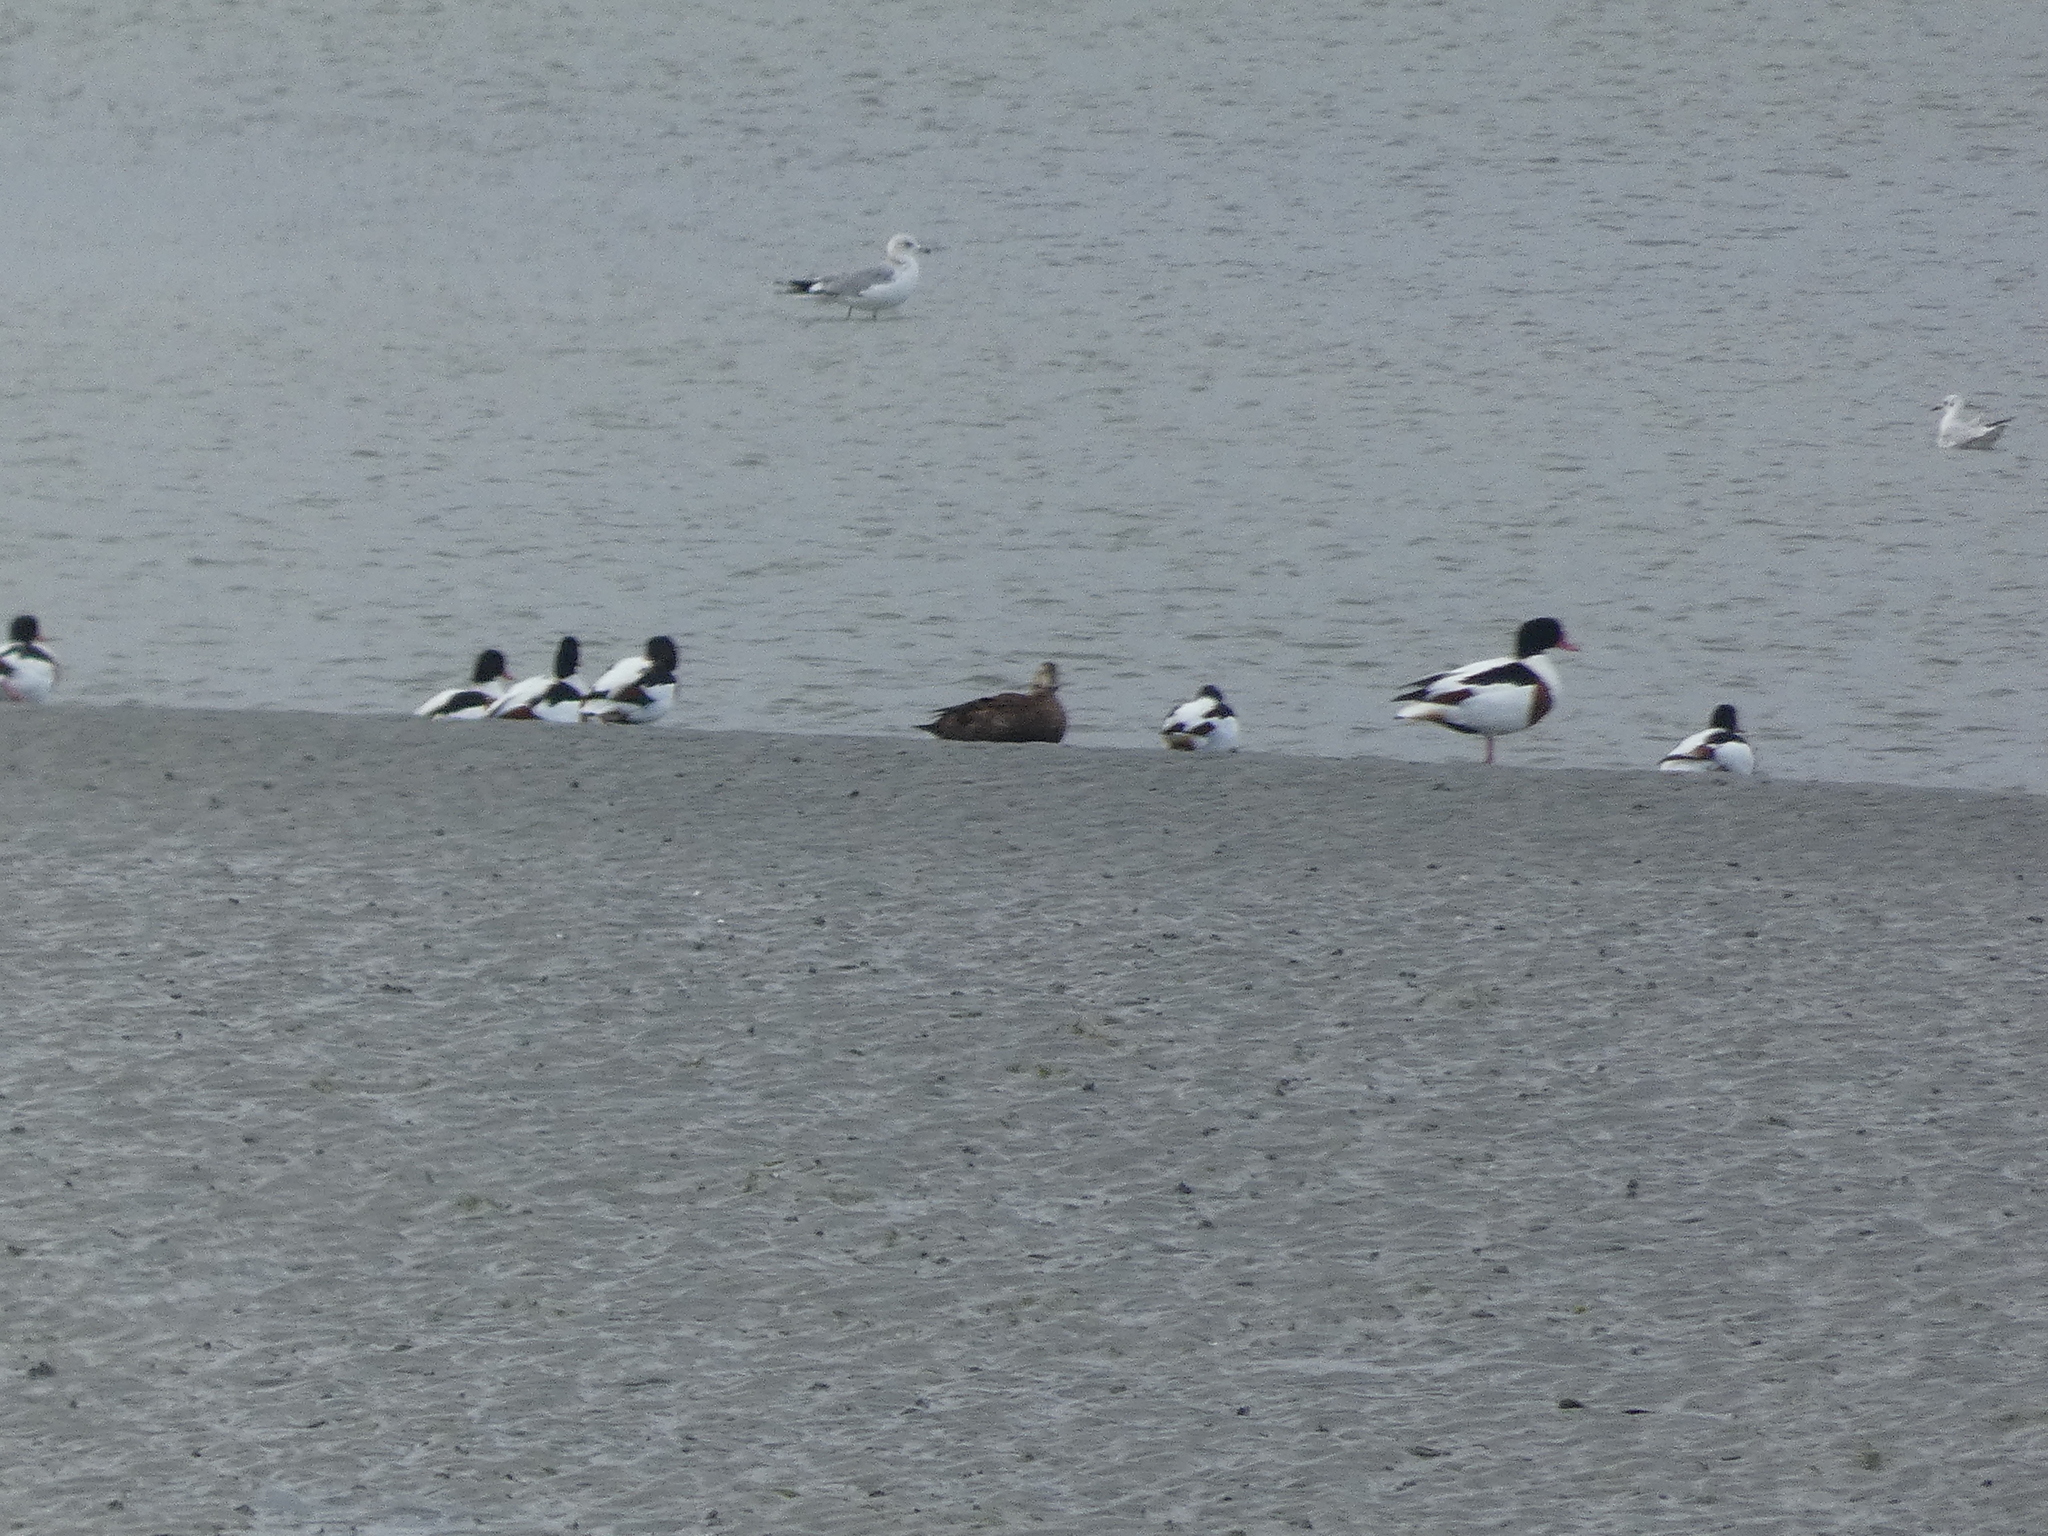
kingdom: Animalia
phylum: Chordata
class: Aves
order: Charadriiformes
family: Laridae
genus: Larus
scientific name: Larus canus
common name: Mew gull
